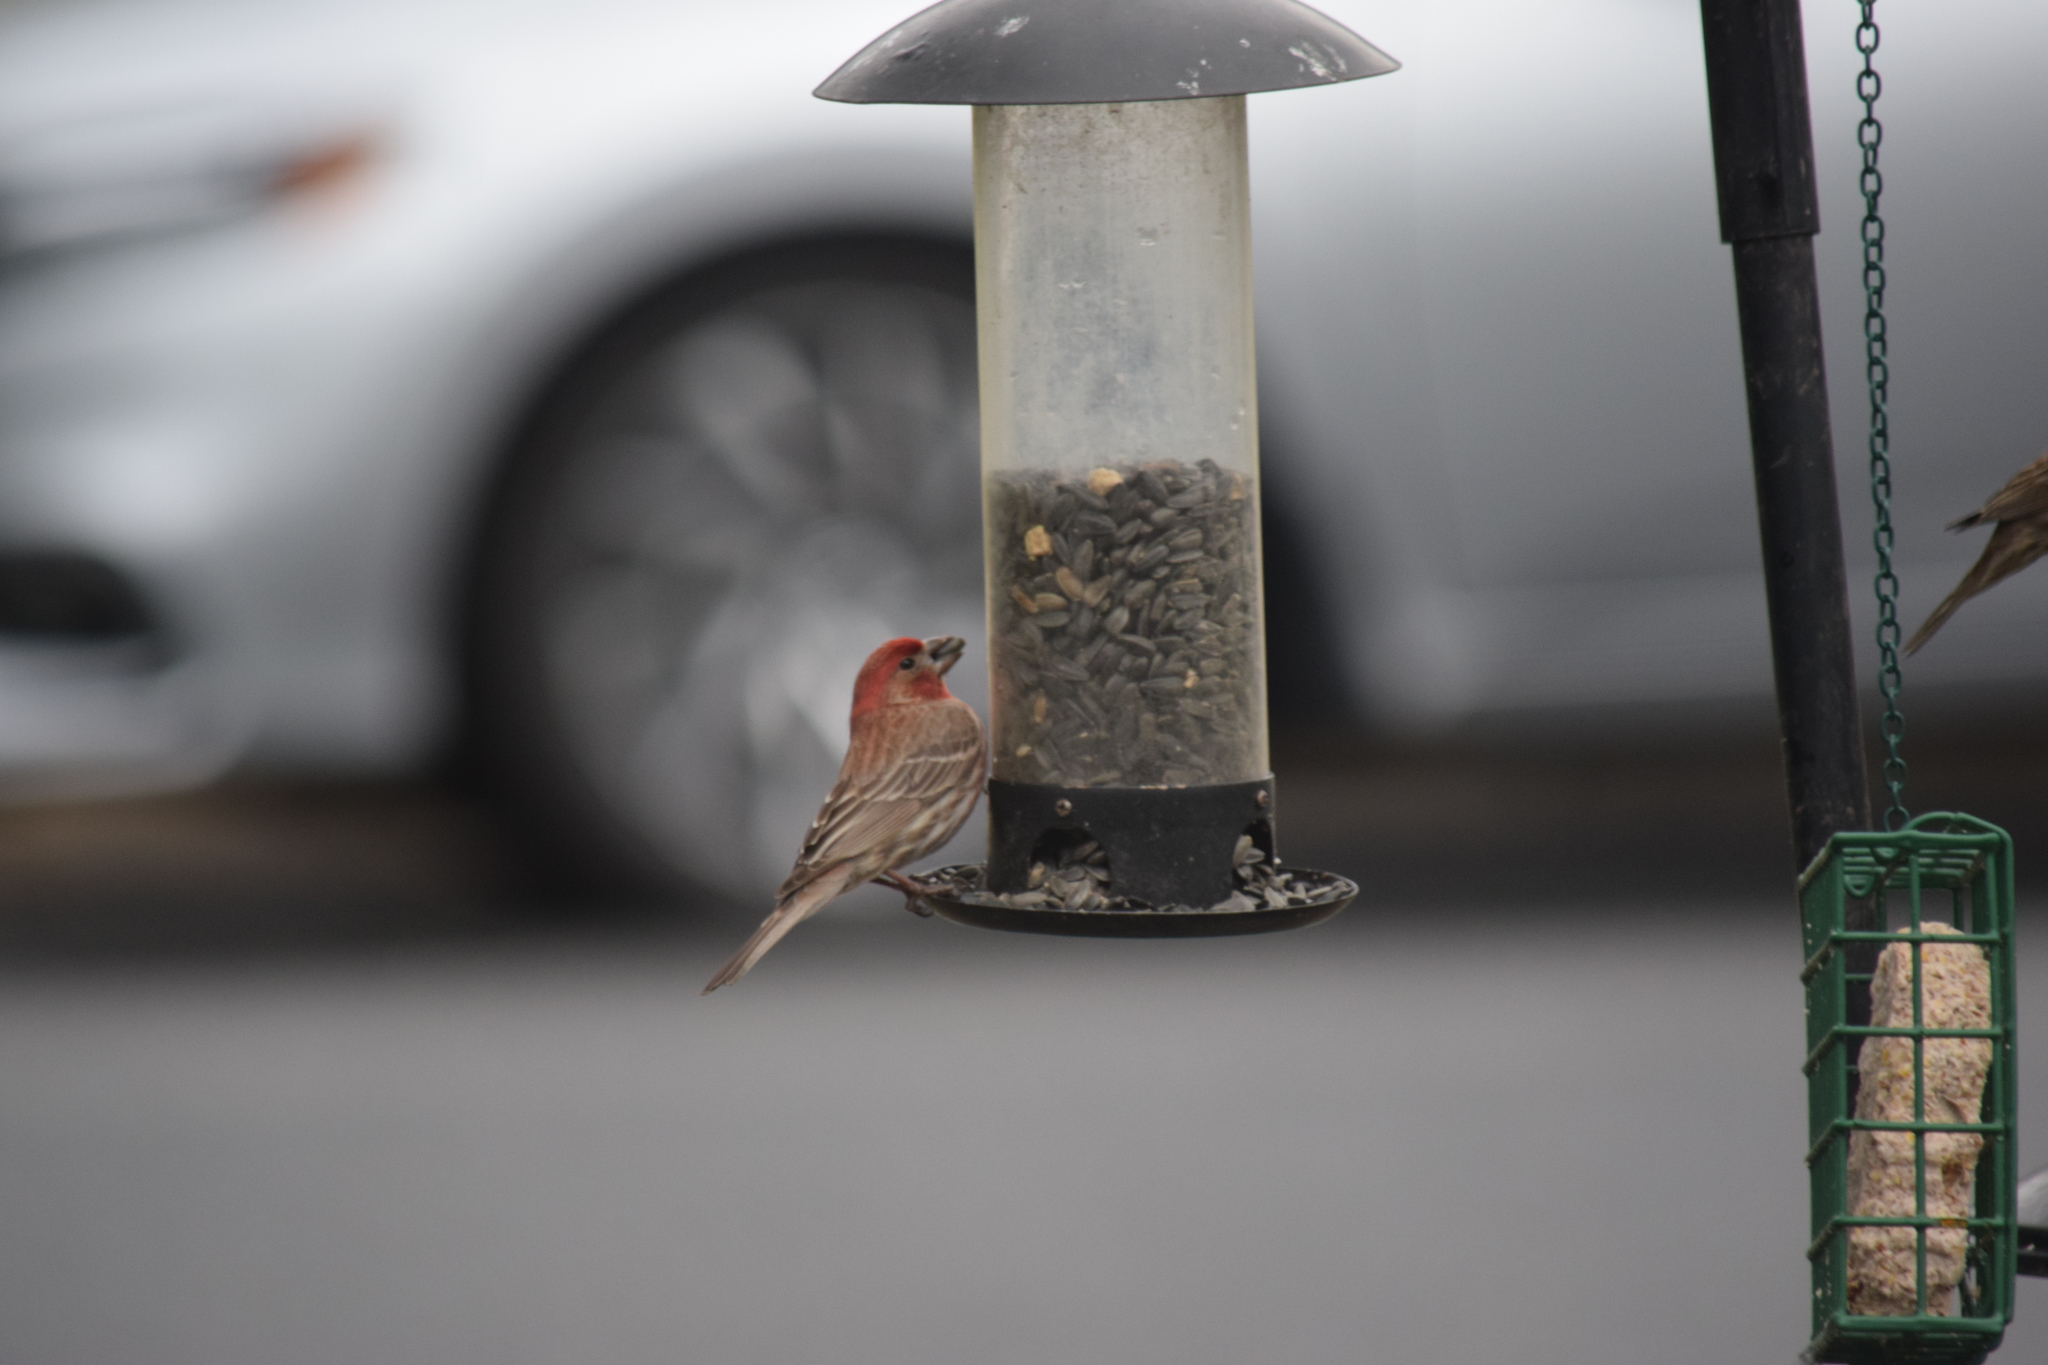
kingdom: Animalia
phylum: Chordata
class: Aves
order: Passeriformes
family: Fringillidae
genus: Haemorhous
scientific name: Haemorhous mexicanus
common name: House finch
